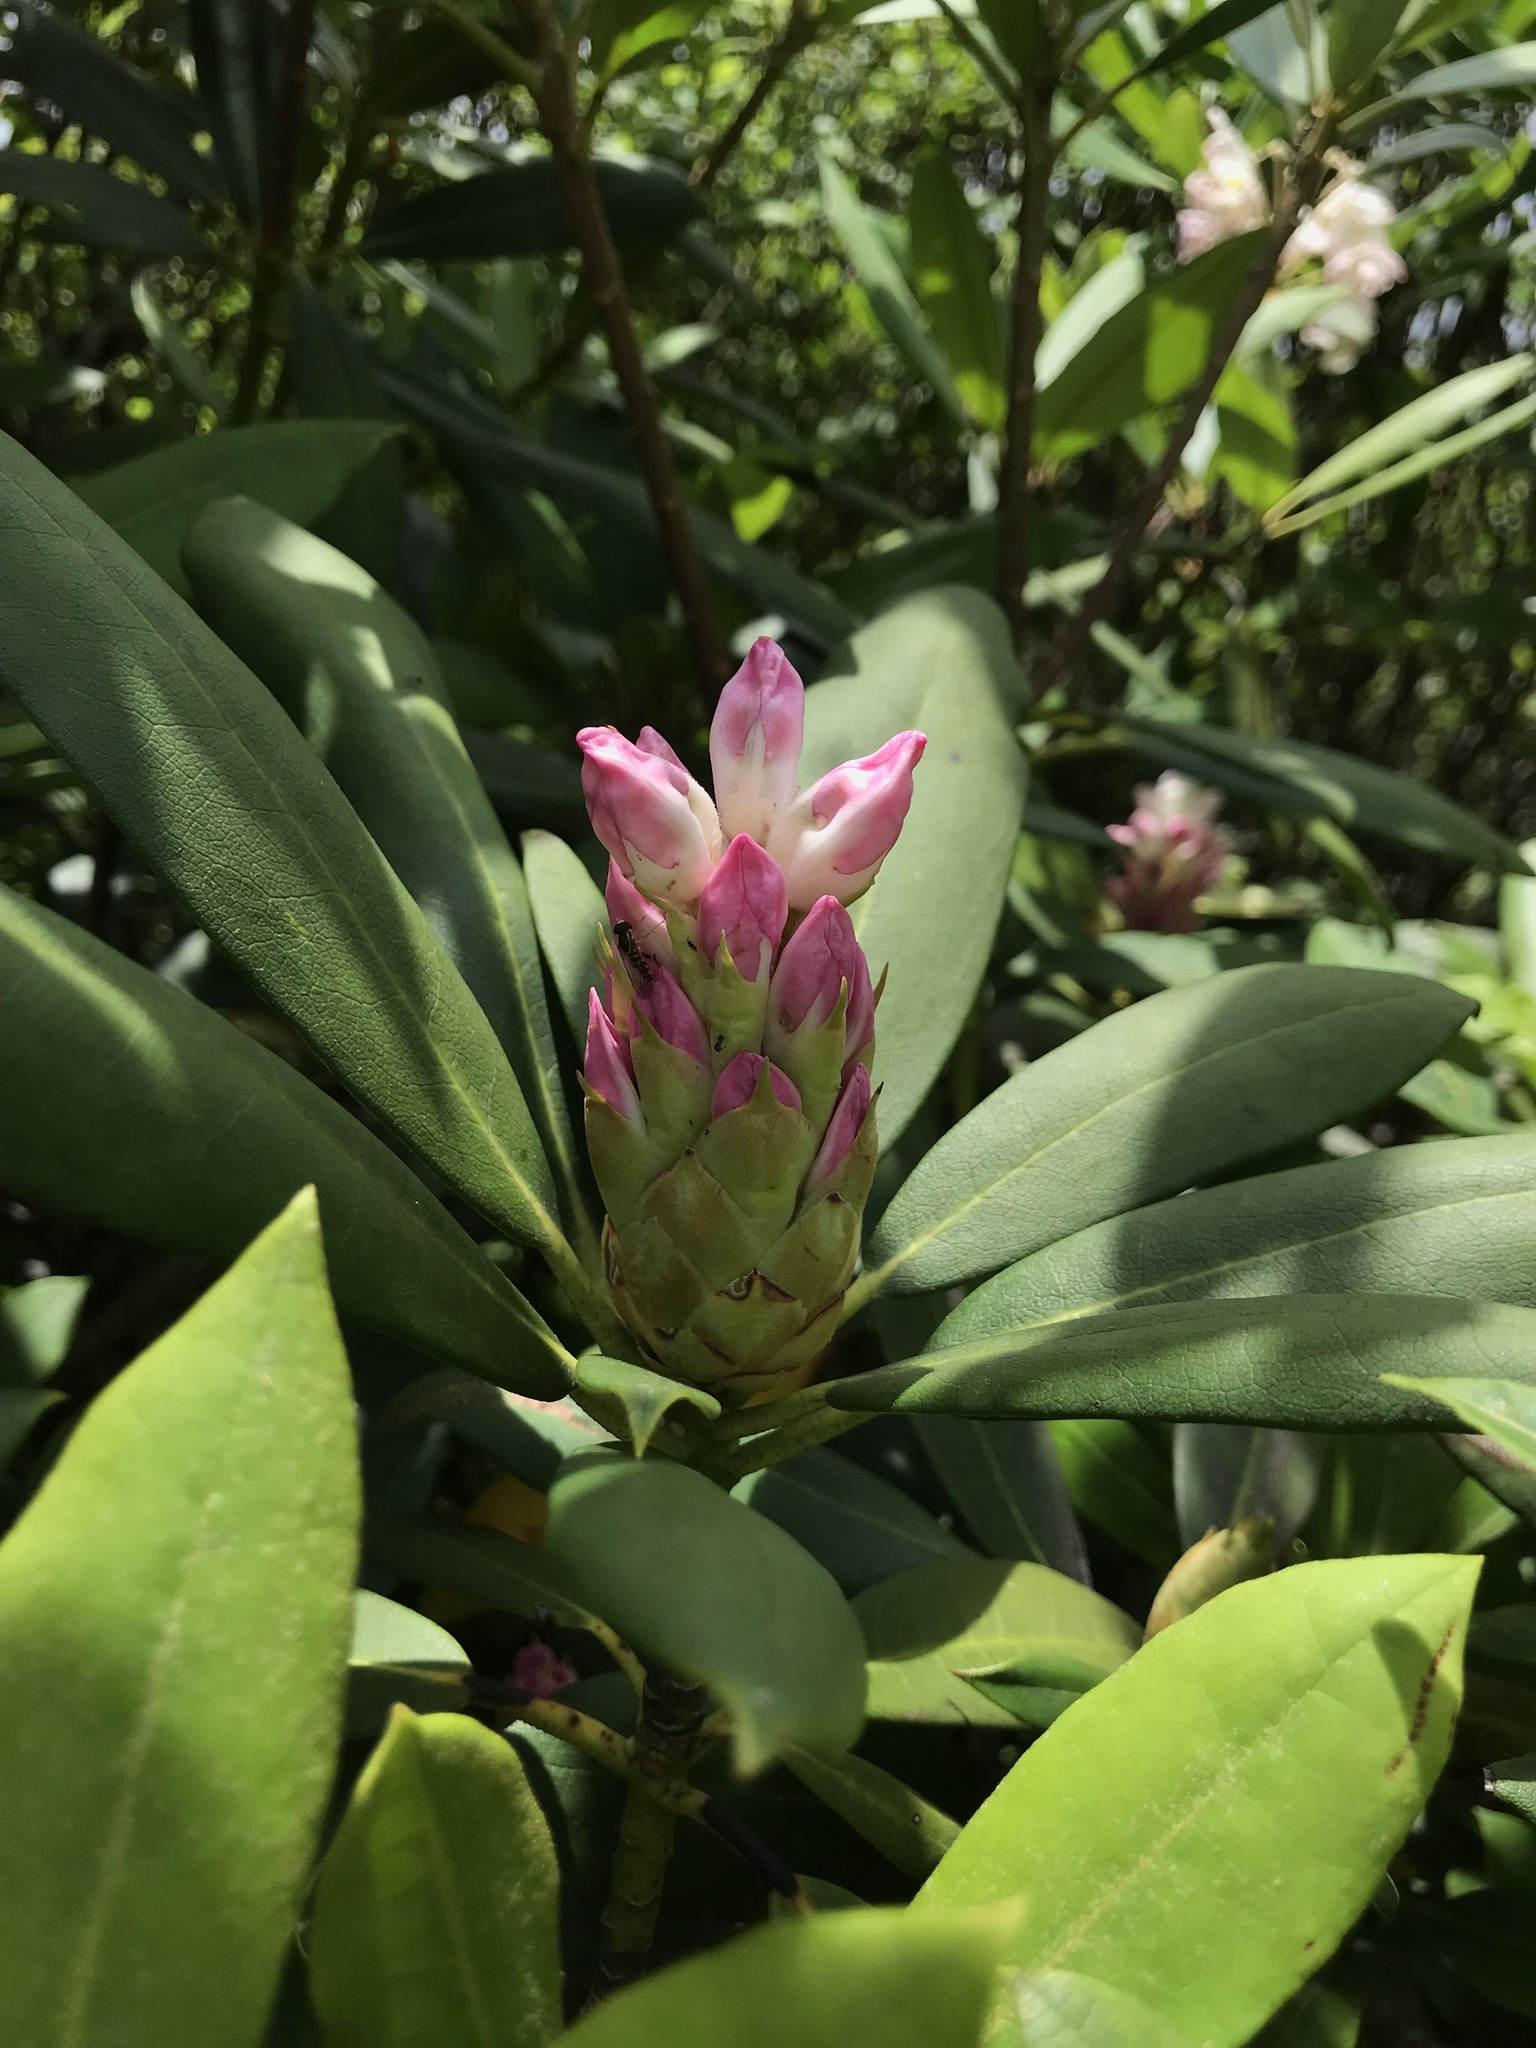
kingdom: Plantae
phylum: Tracheophyta
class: Magnoliopsida
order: Ericales
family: Ericaceae
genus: Rhododendron
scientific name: Rhododendron maximum
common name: Great rhododendron
